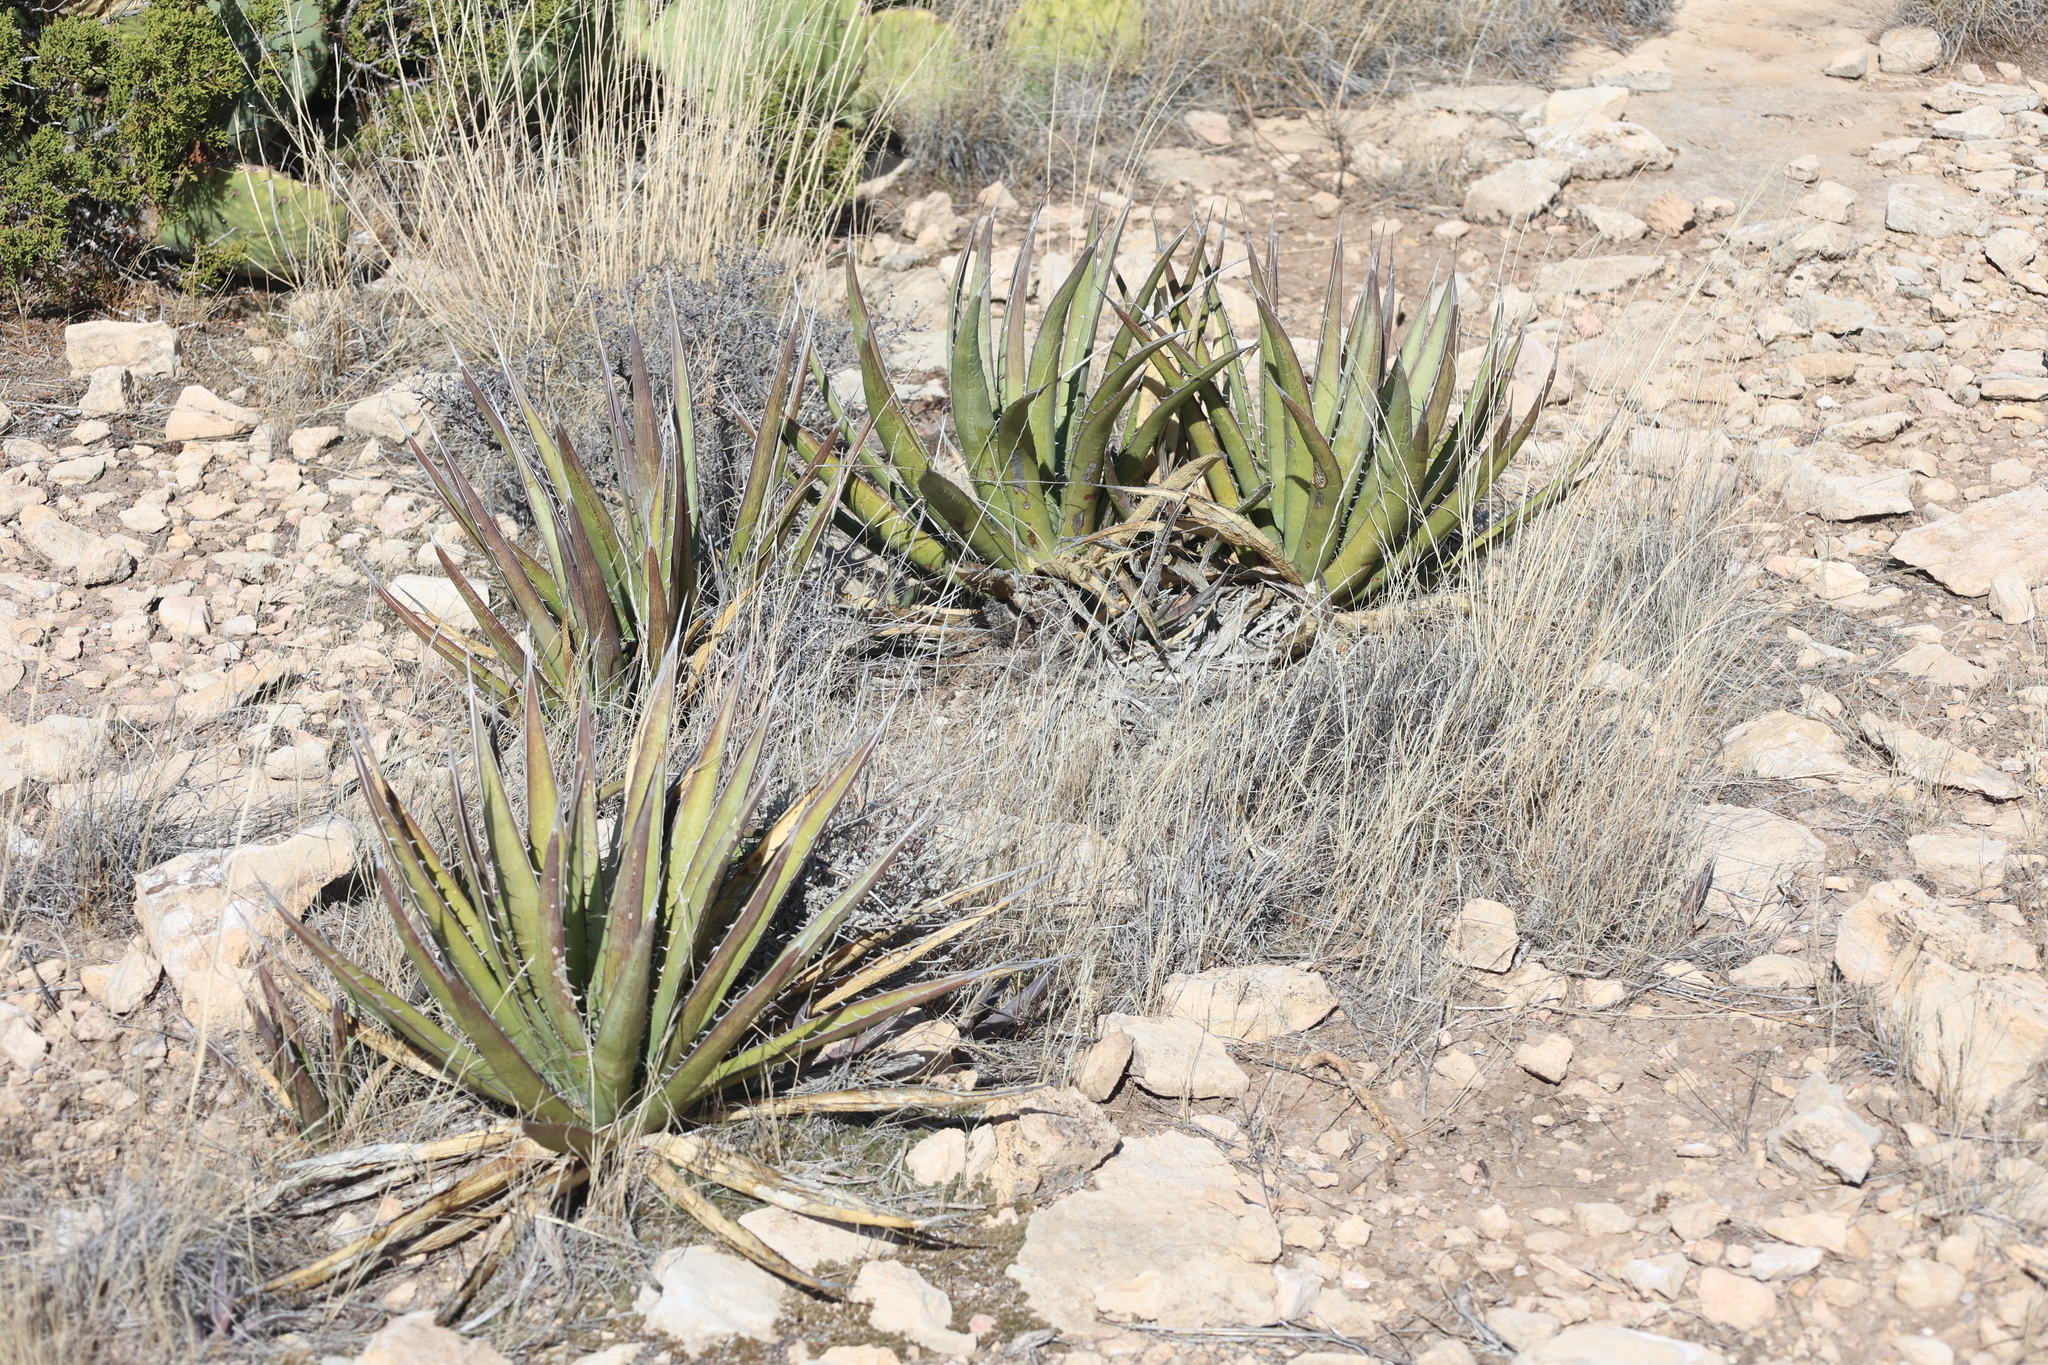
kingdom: Plantae
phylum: Tracheophyta
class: Liliopsida
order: Asparagales
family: Asparagaceae
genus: Agave
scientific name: Agave lechuguilla
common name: Lecheguilla agave
